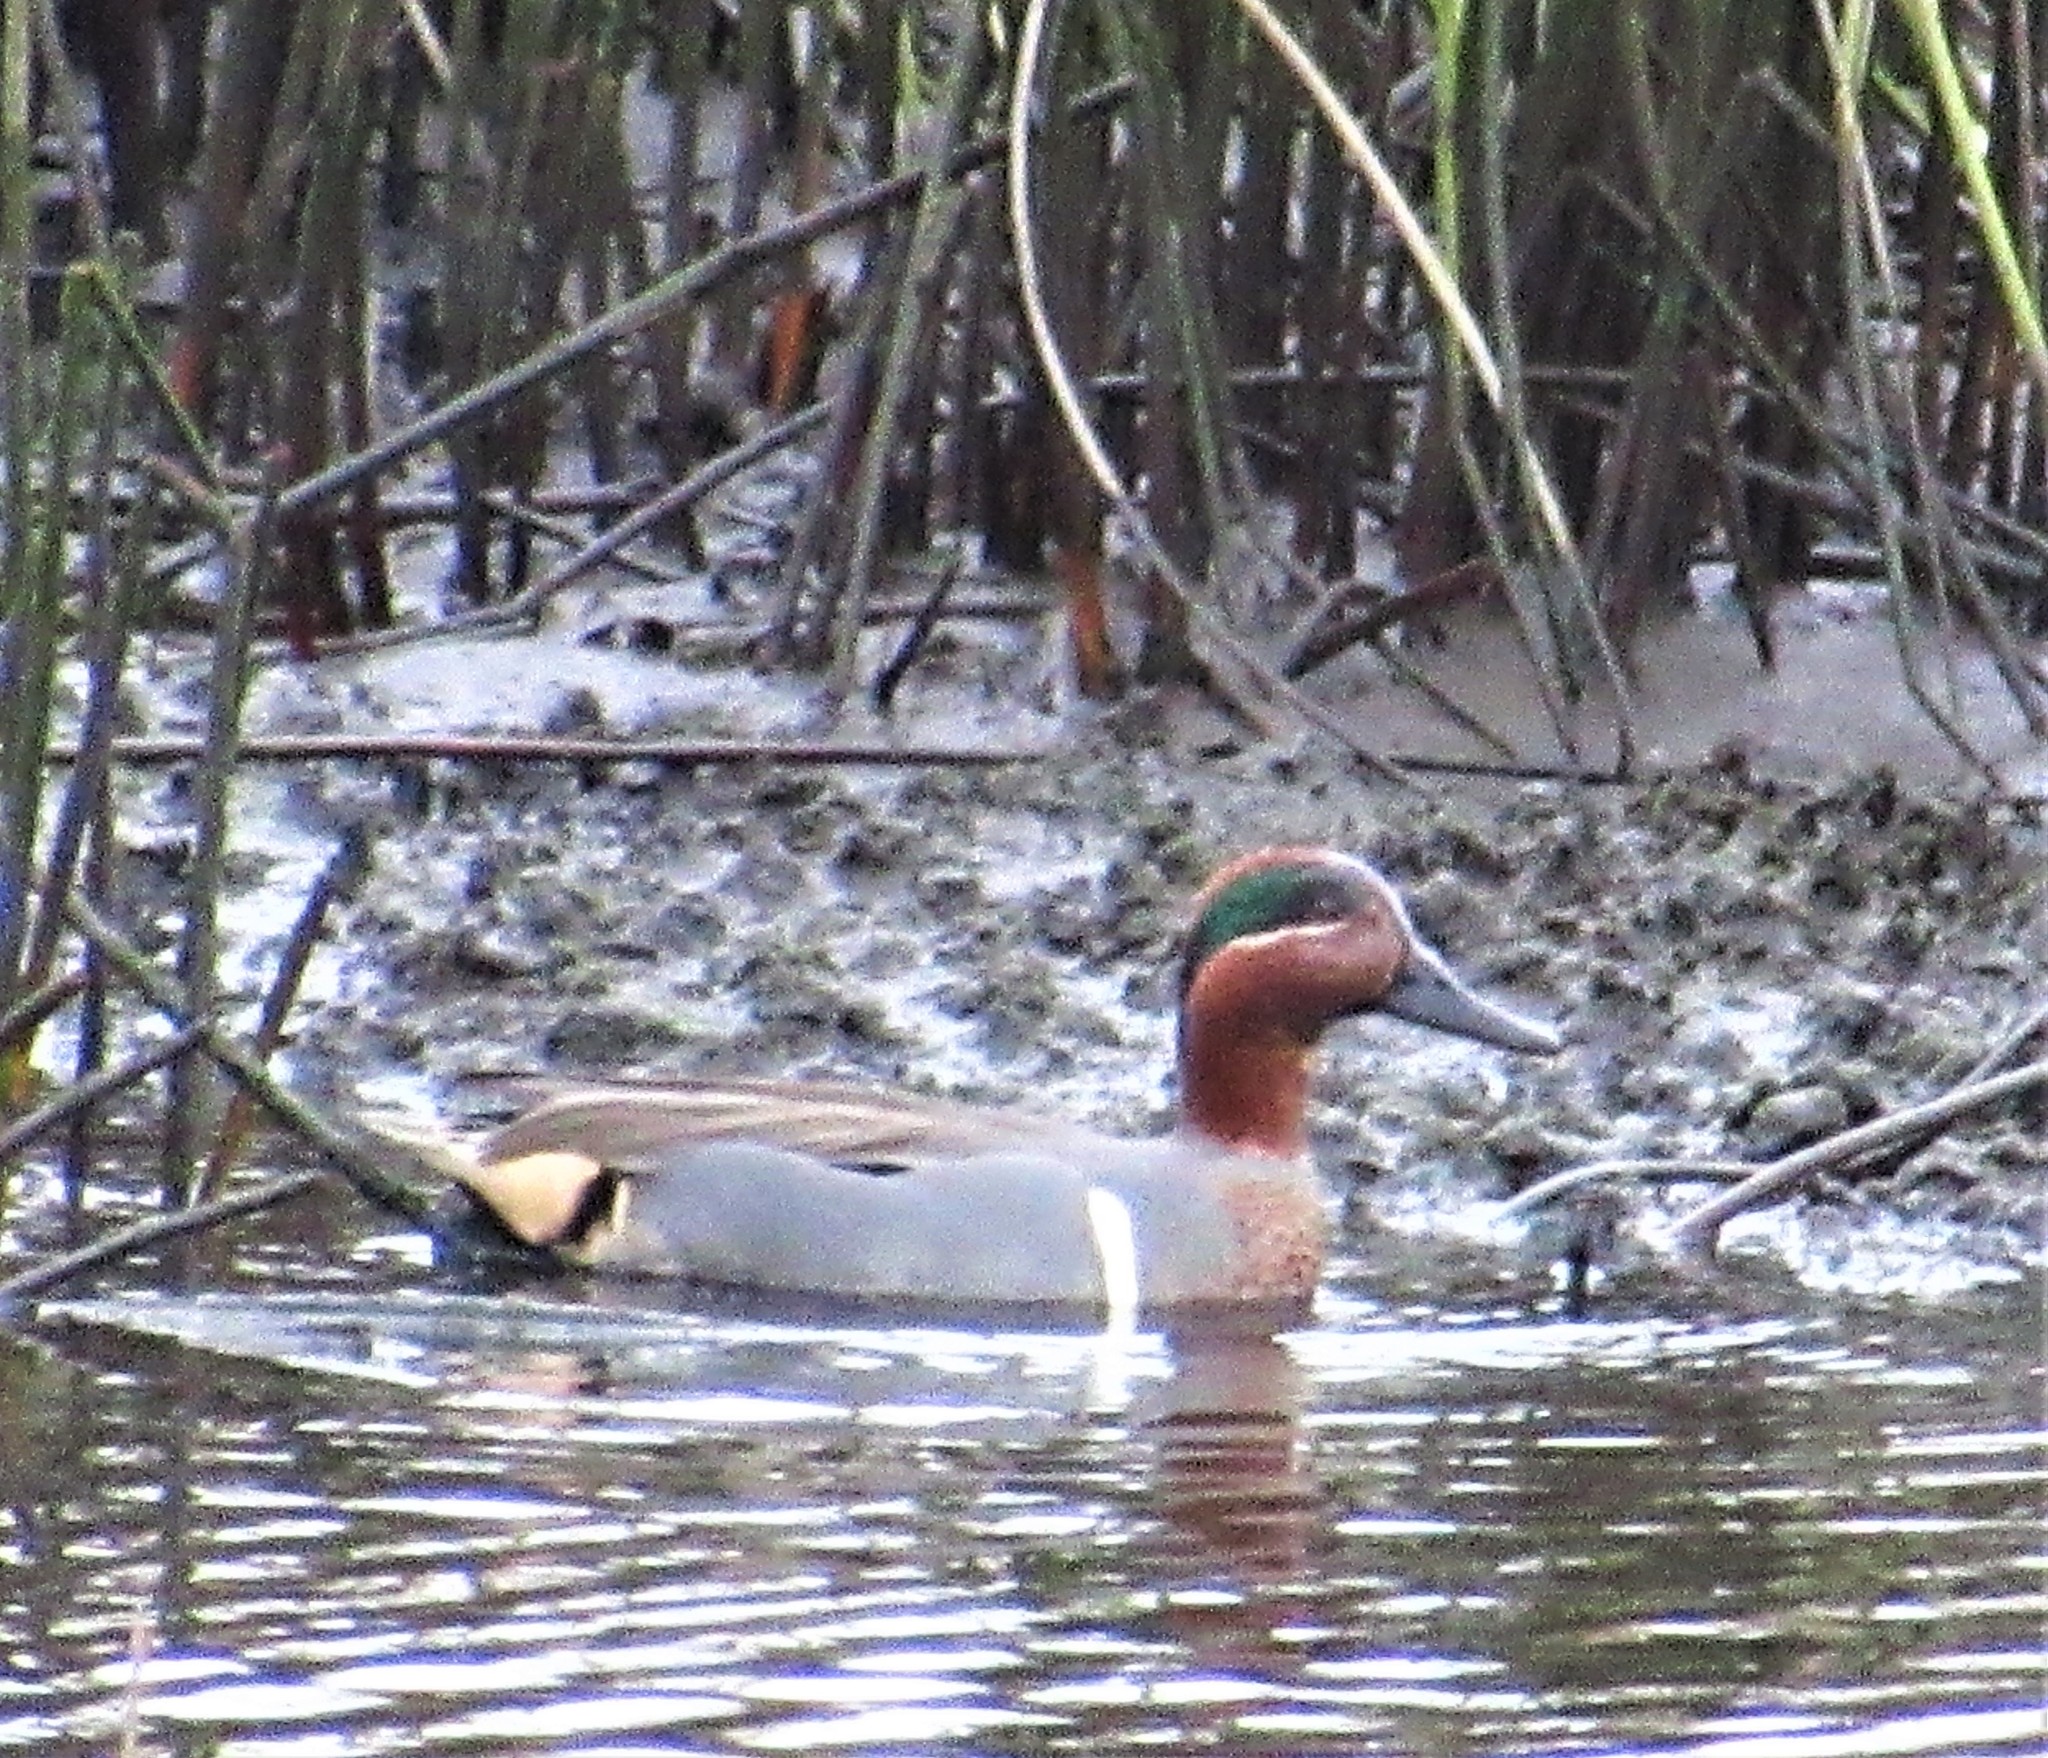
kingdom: Animalia
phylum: Chordata
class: Aves
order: Anseriformes
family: Anatidae
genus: Anas
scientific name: Anas
